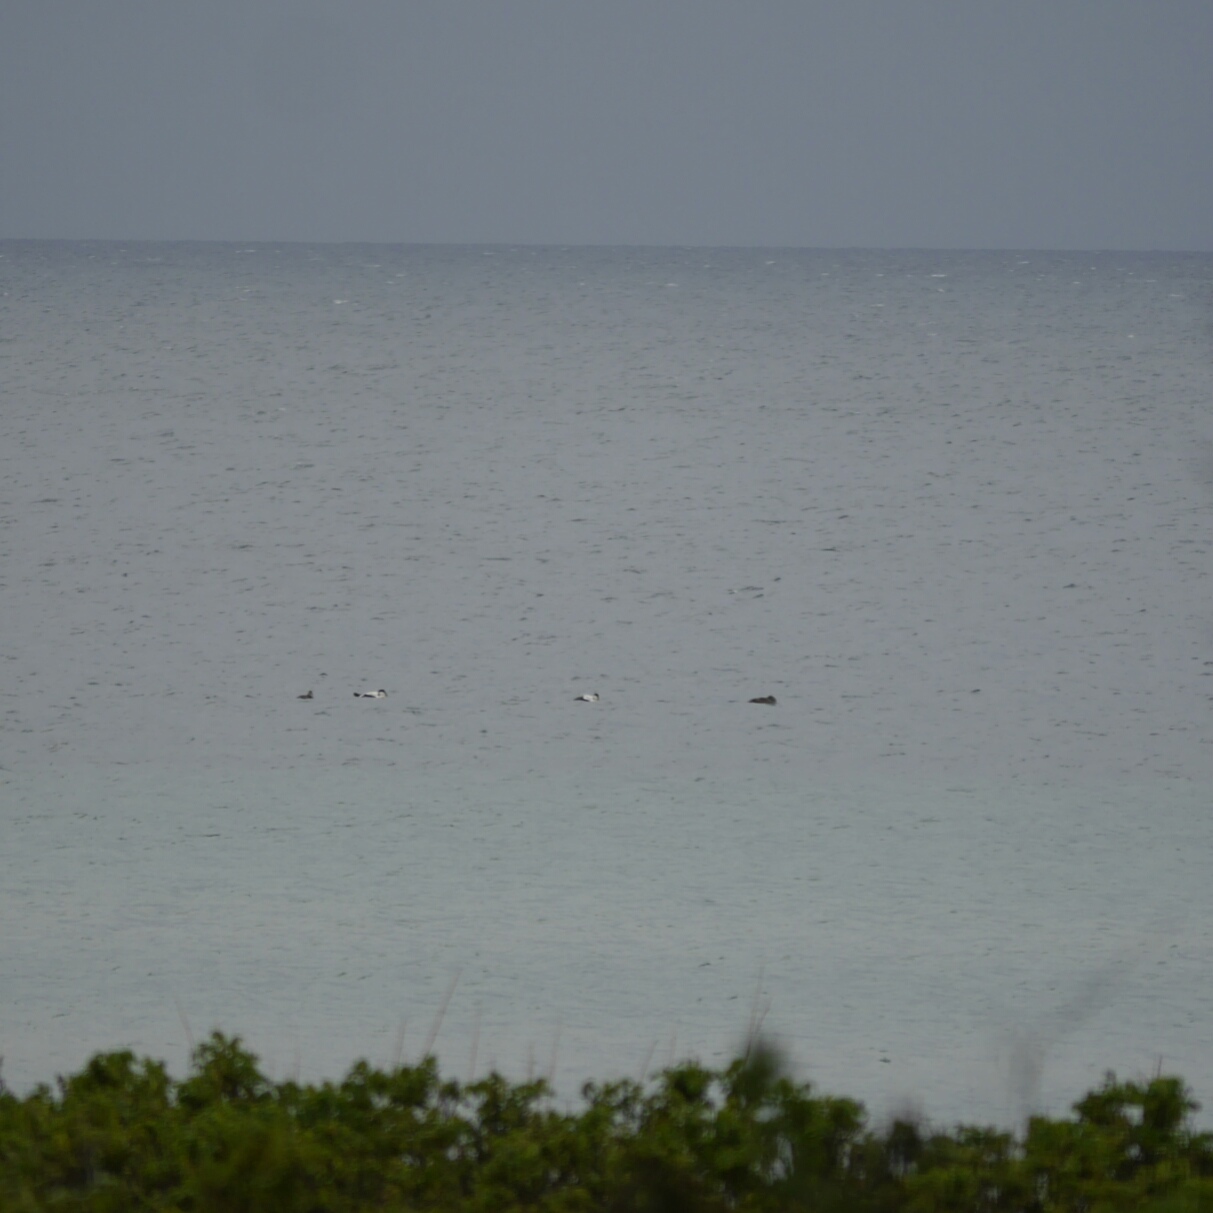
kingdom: Animalia
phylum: Chordata
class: Aves
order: Anseriformes
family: Anatidae
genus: Somateria
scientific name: Somateria mollissima
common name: Common eider
